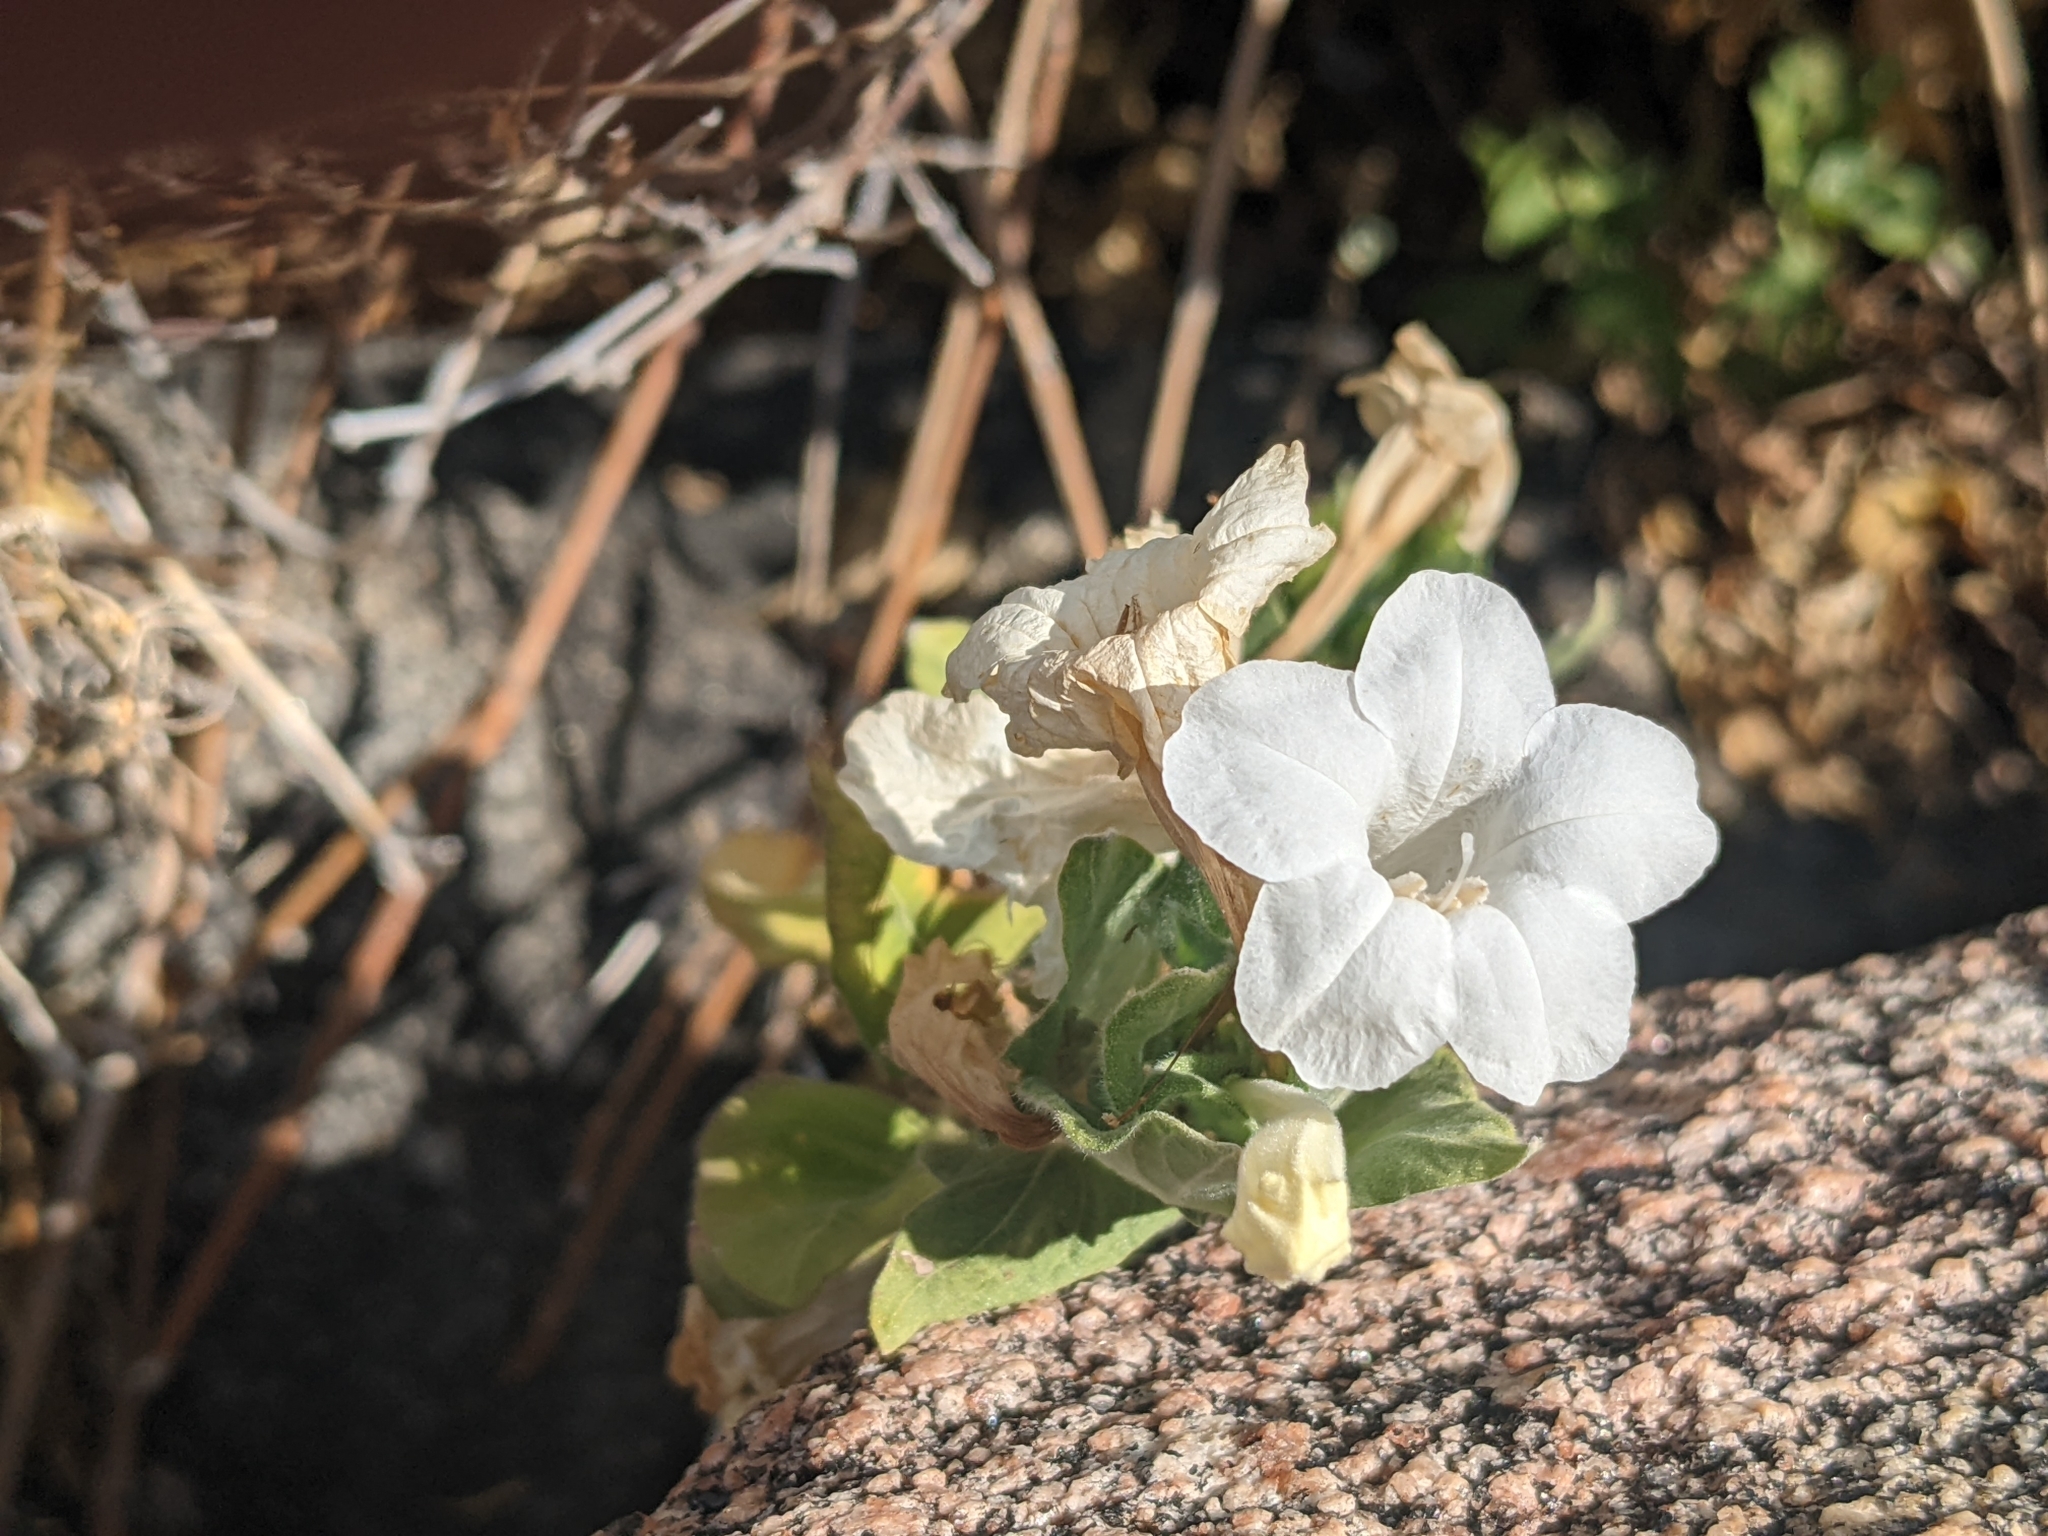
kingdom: Plantae
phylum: Tracheophyta
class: Magnoliopsida
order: Lamiales
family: Acanthaceae
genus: Ruellia
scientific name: Ruellia leucantha
